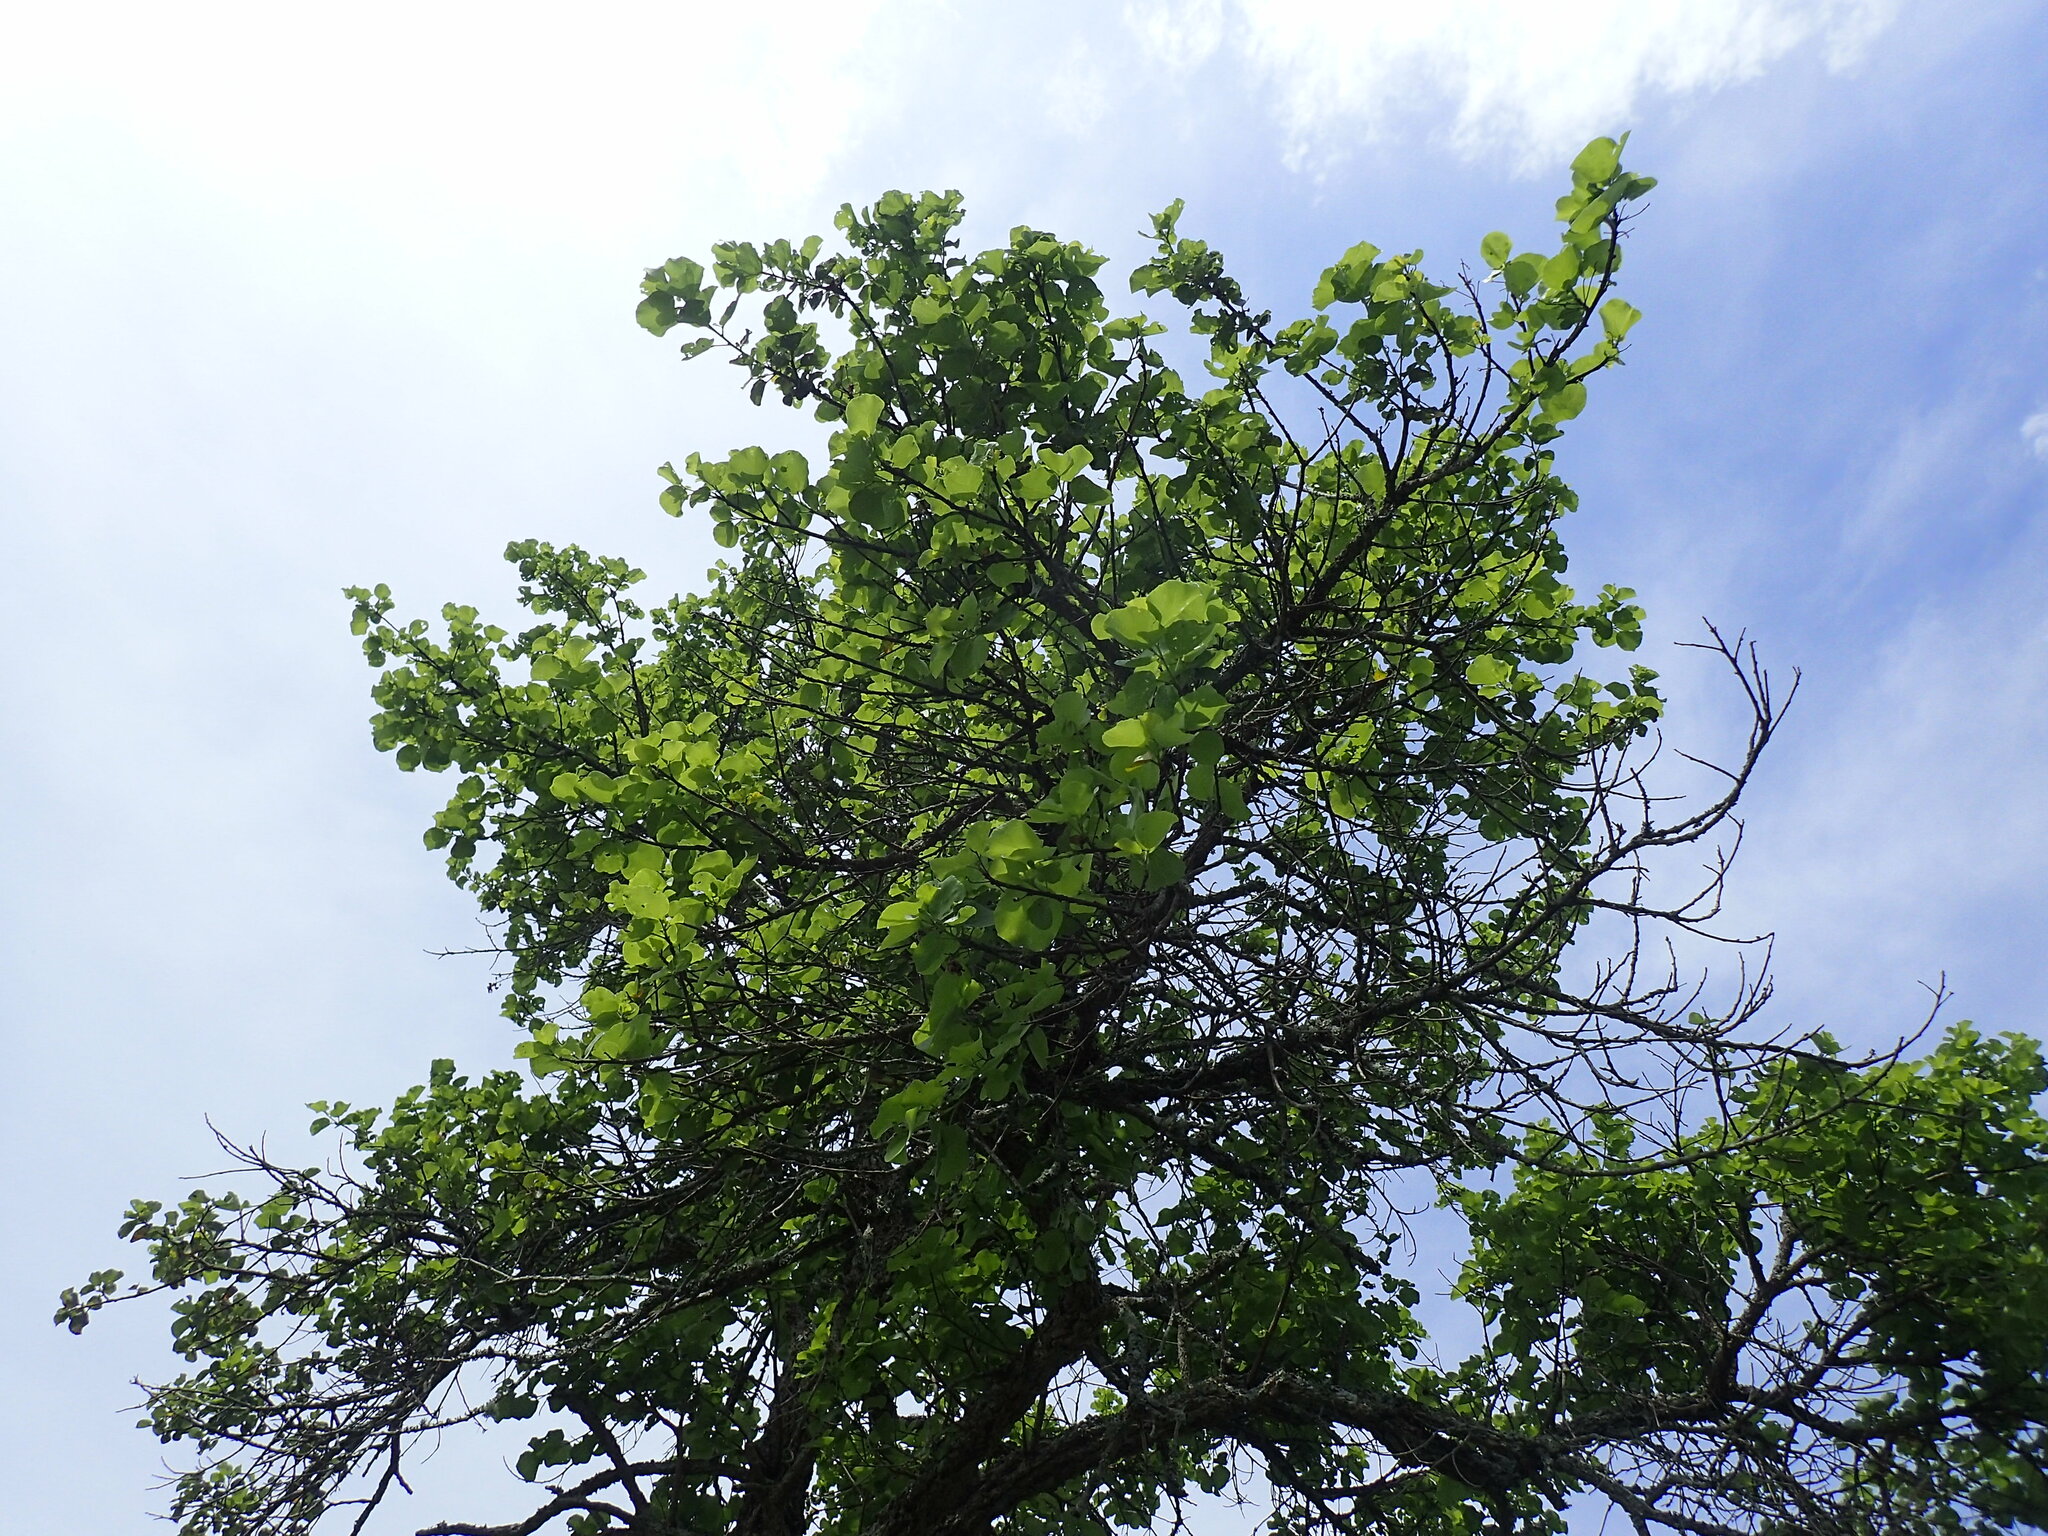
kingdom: Plantae
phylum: Tracheophyta
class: Magnoliopsida
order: Malvales
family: Malvaceae
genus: Dombeya
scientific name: Dombeya rotundifolia
